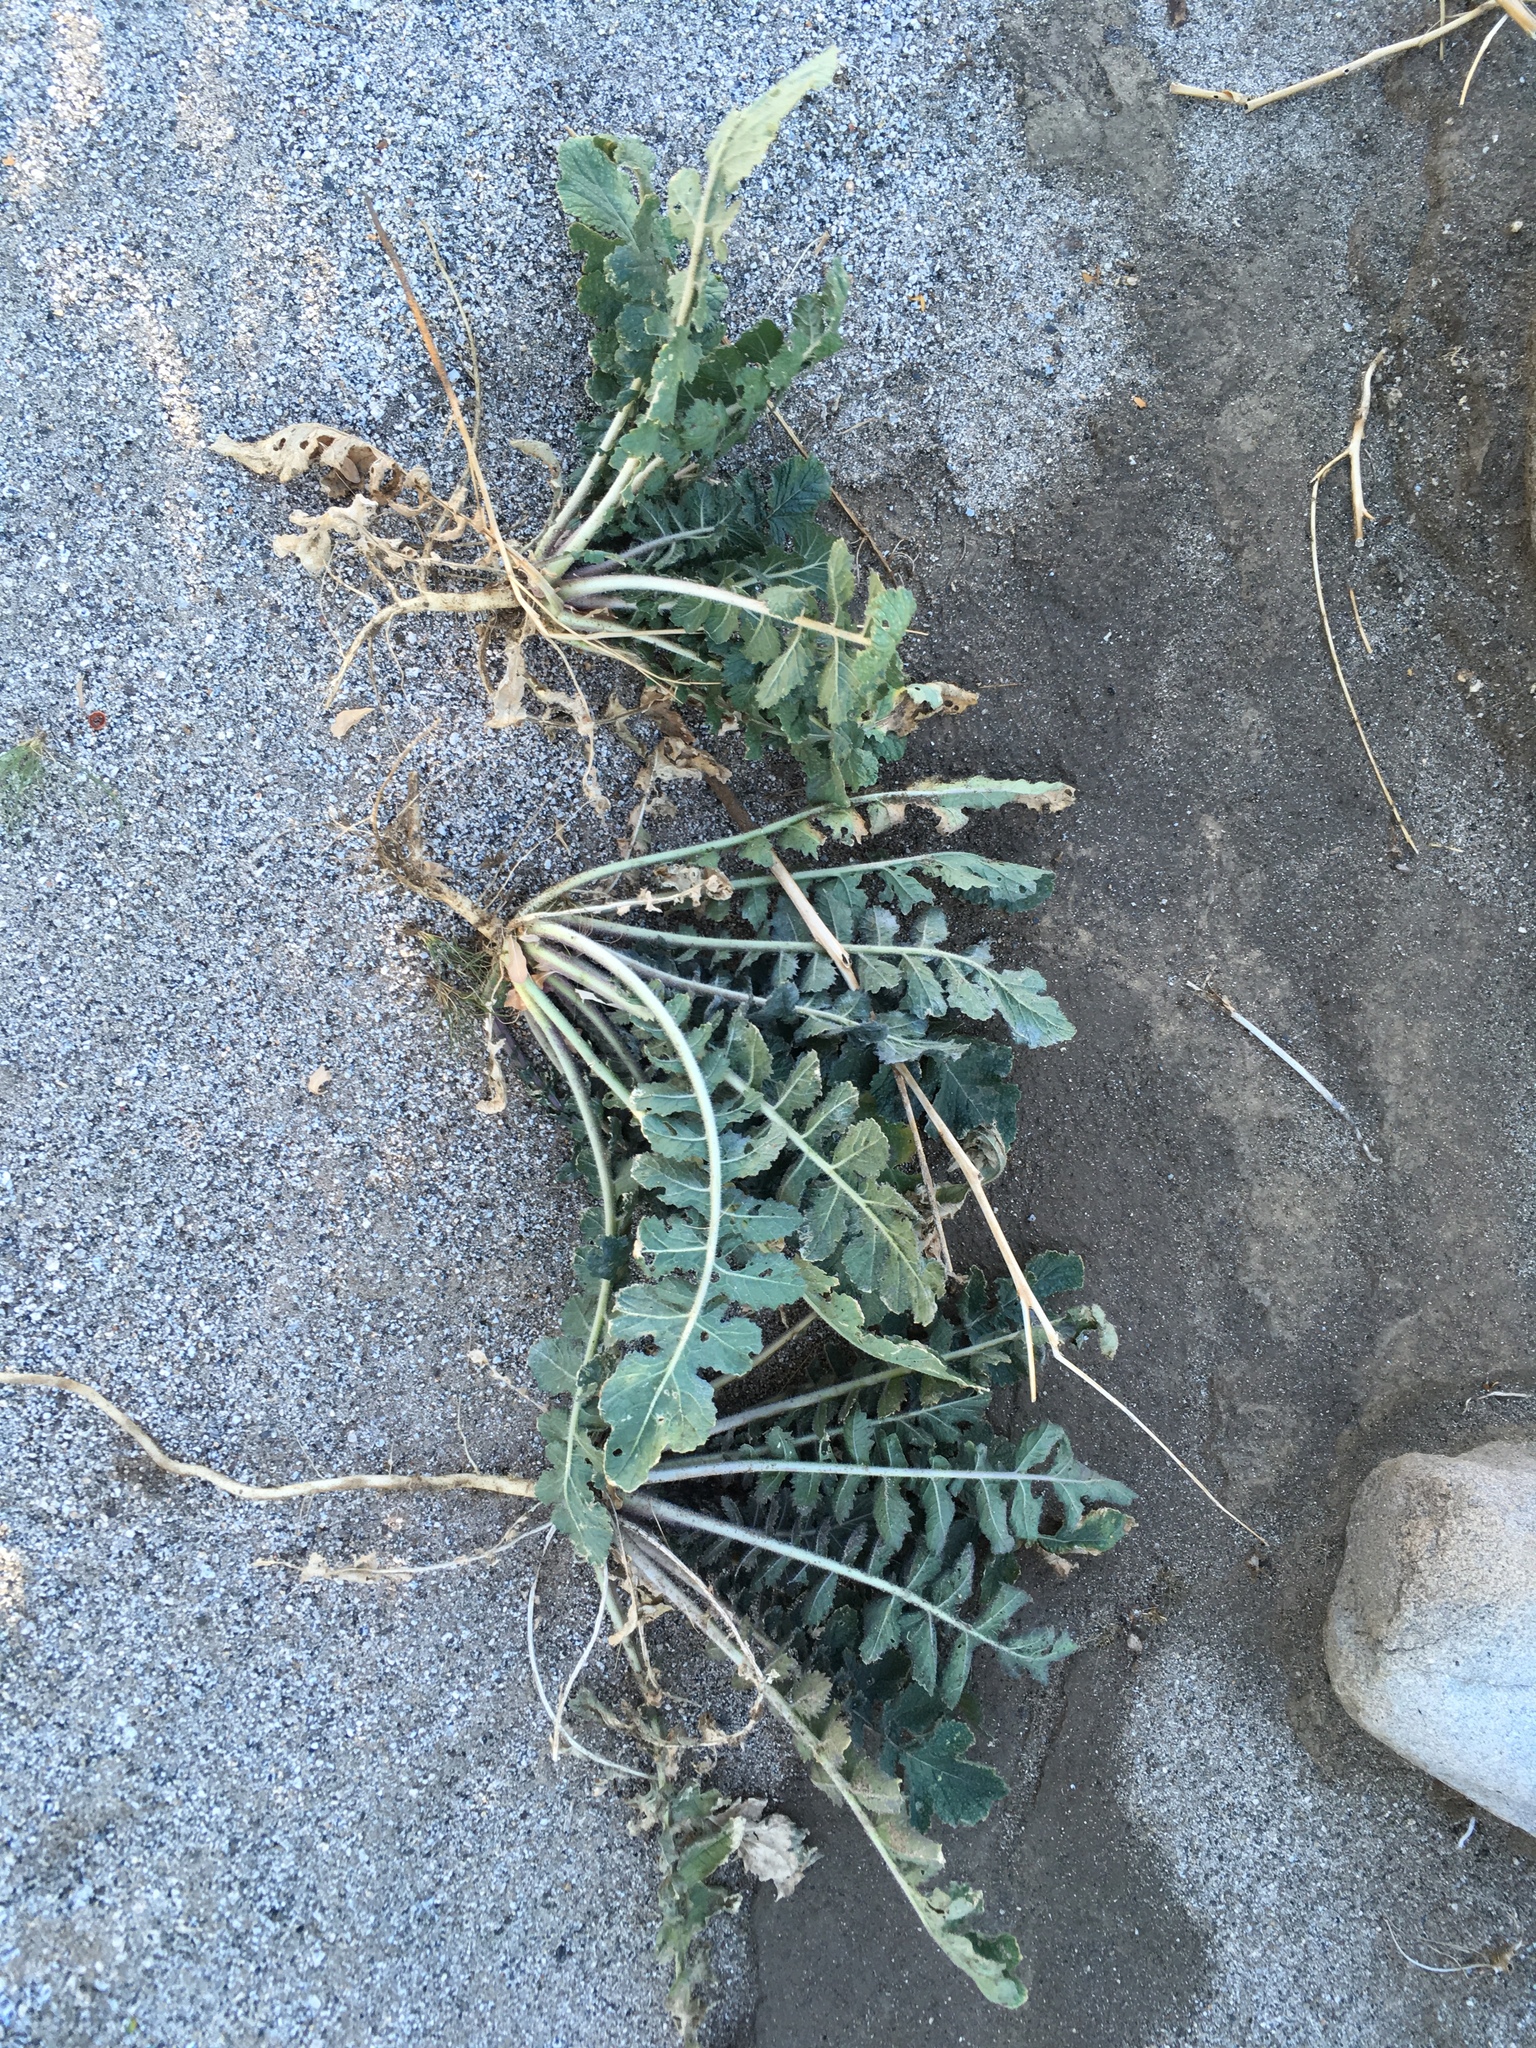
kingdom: Plantae
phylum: Tracheophyta
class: Magnoliopsida
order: Brassicales
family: Brassicaceae
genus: Brassica
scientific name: Brassica tournefortii
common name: Pale cabbage
